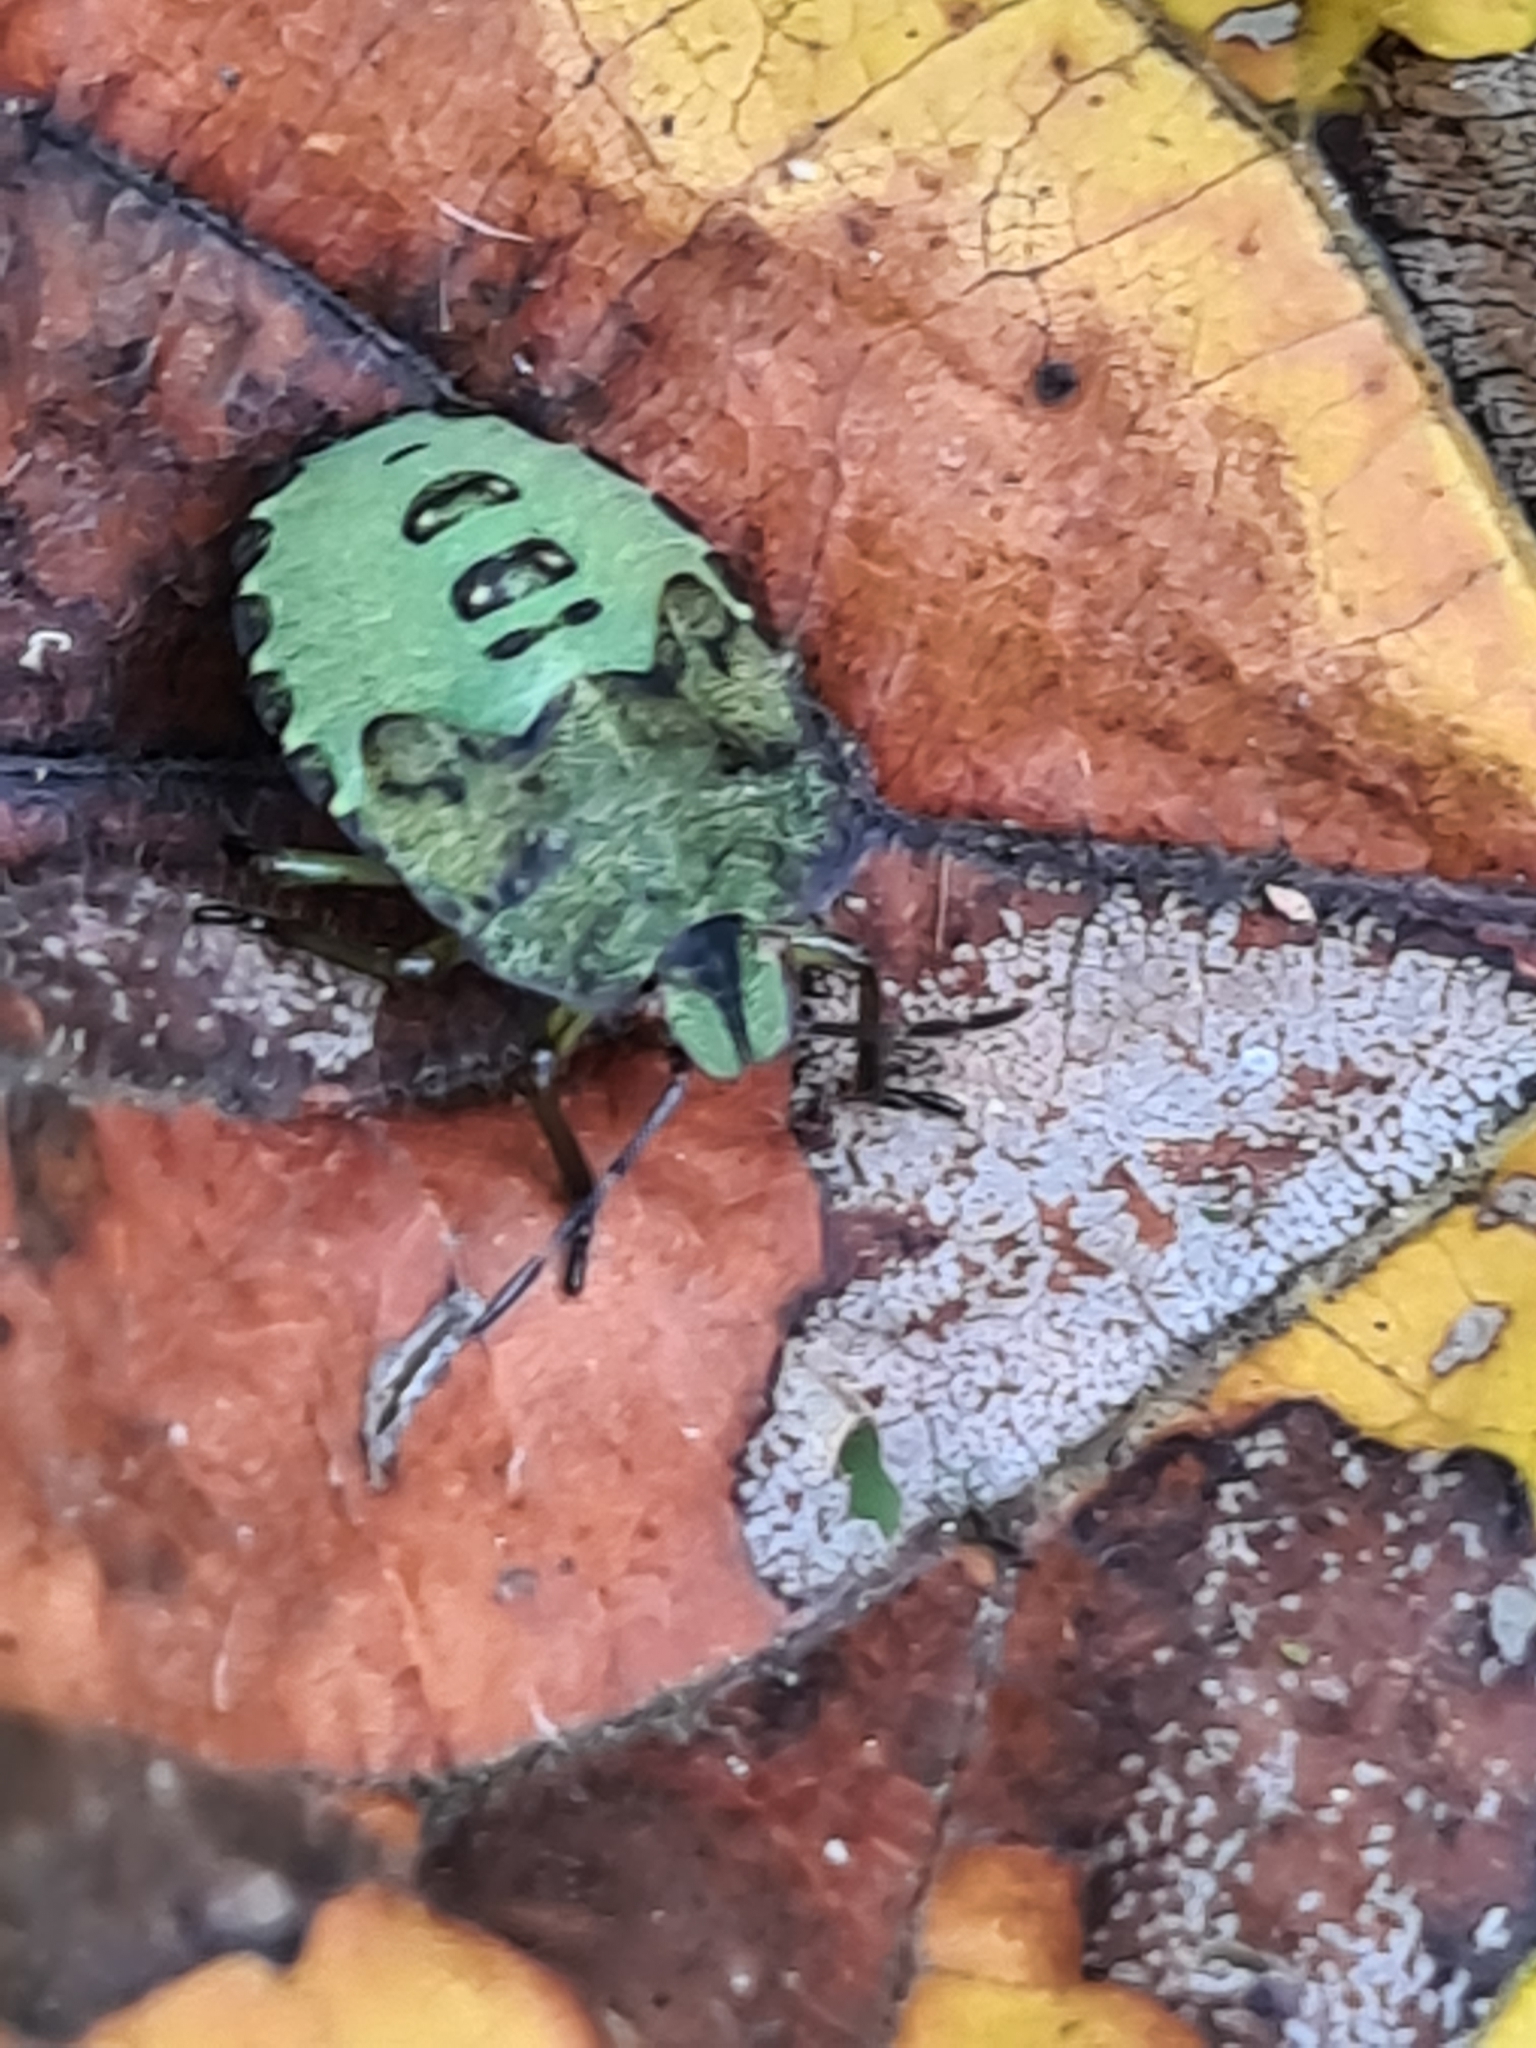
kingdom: Animalia
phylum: Arthropoda
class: Insecta
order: Hemiptera
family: Pentatomidae
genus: Palomena
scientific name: Palomena prasina
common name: Green shieldbug
